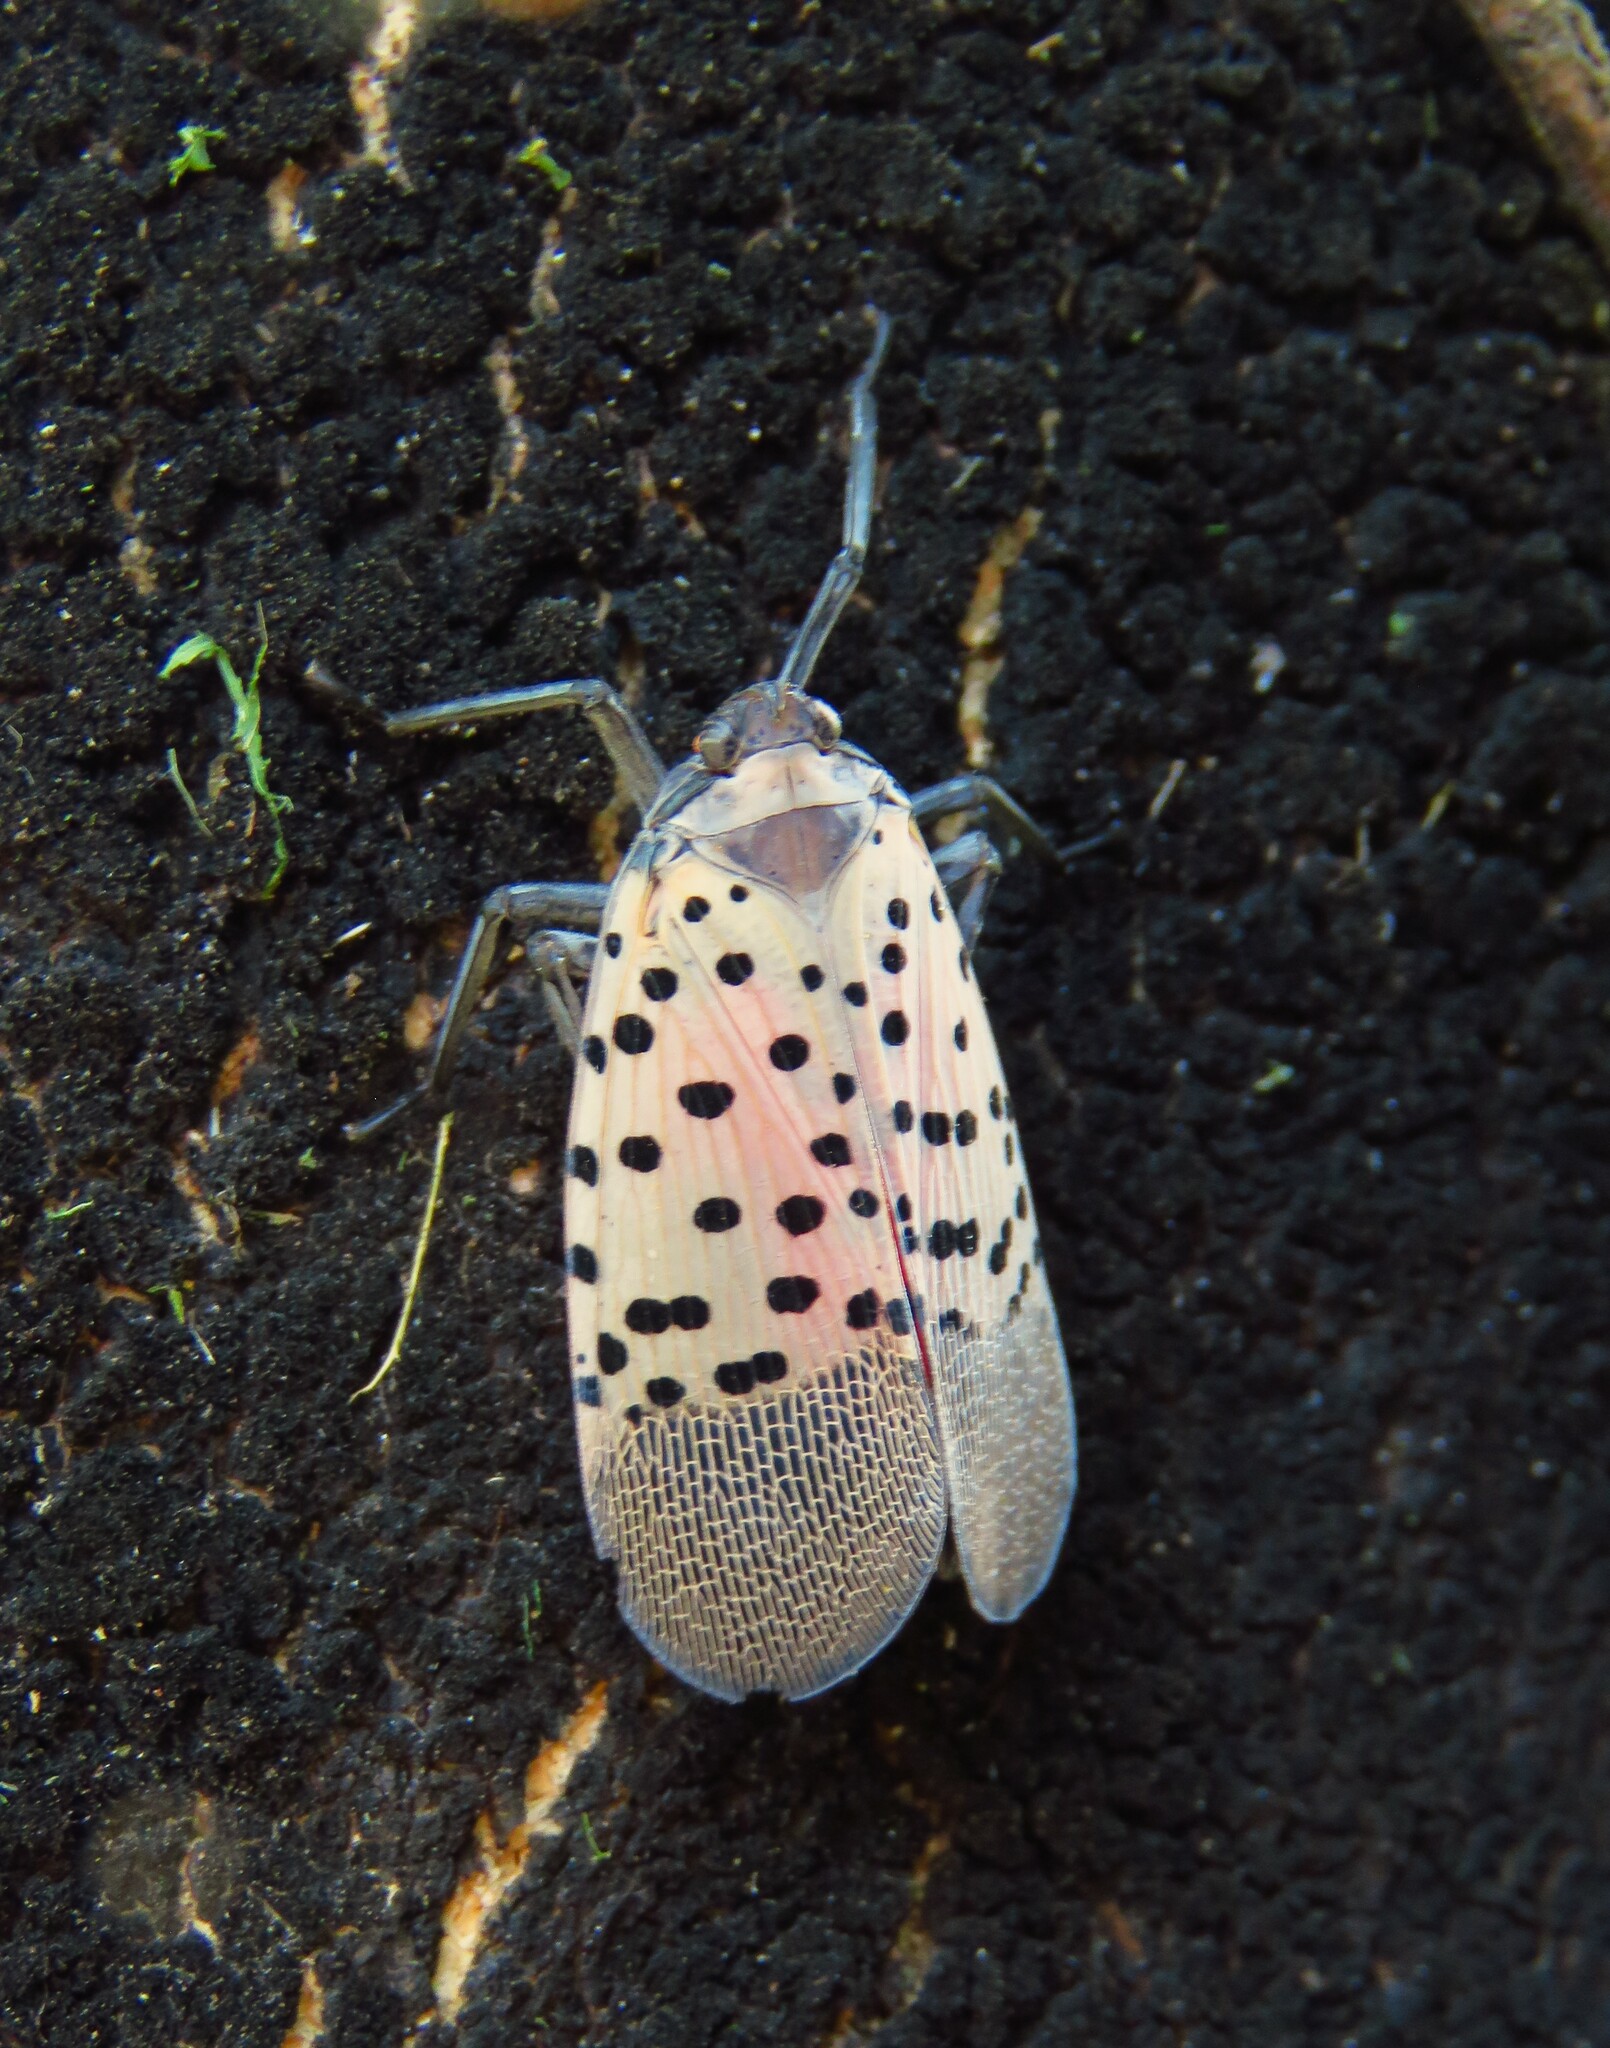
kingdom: Animalia
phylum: Arthropoda
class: Insecta
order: Hemiptera
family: Fulgoridae
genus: Lycorma
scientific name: Lycorma delicatula
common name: Spotted lanternfly
